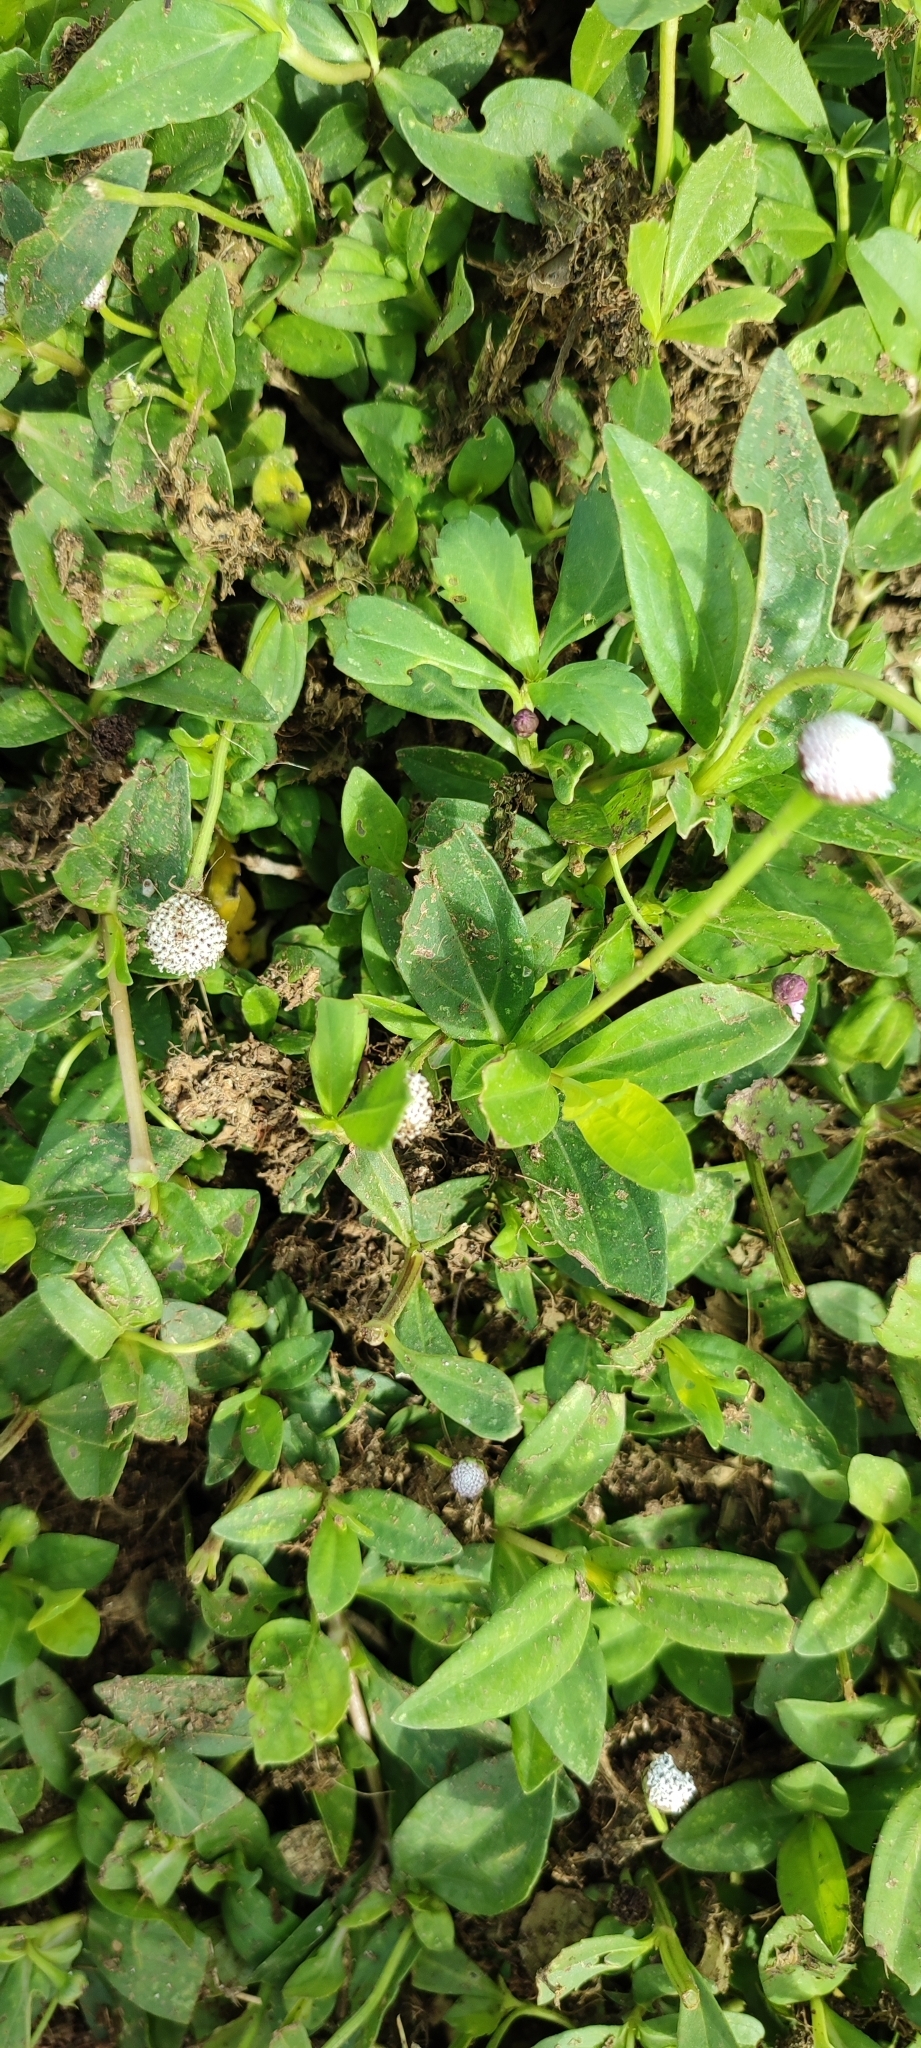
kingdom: Plantae
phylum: Tracheophyta
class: Magnoliopsida
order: Asterales
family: Asteraceae
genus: Spilanthes
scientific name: Spilanthes urens
